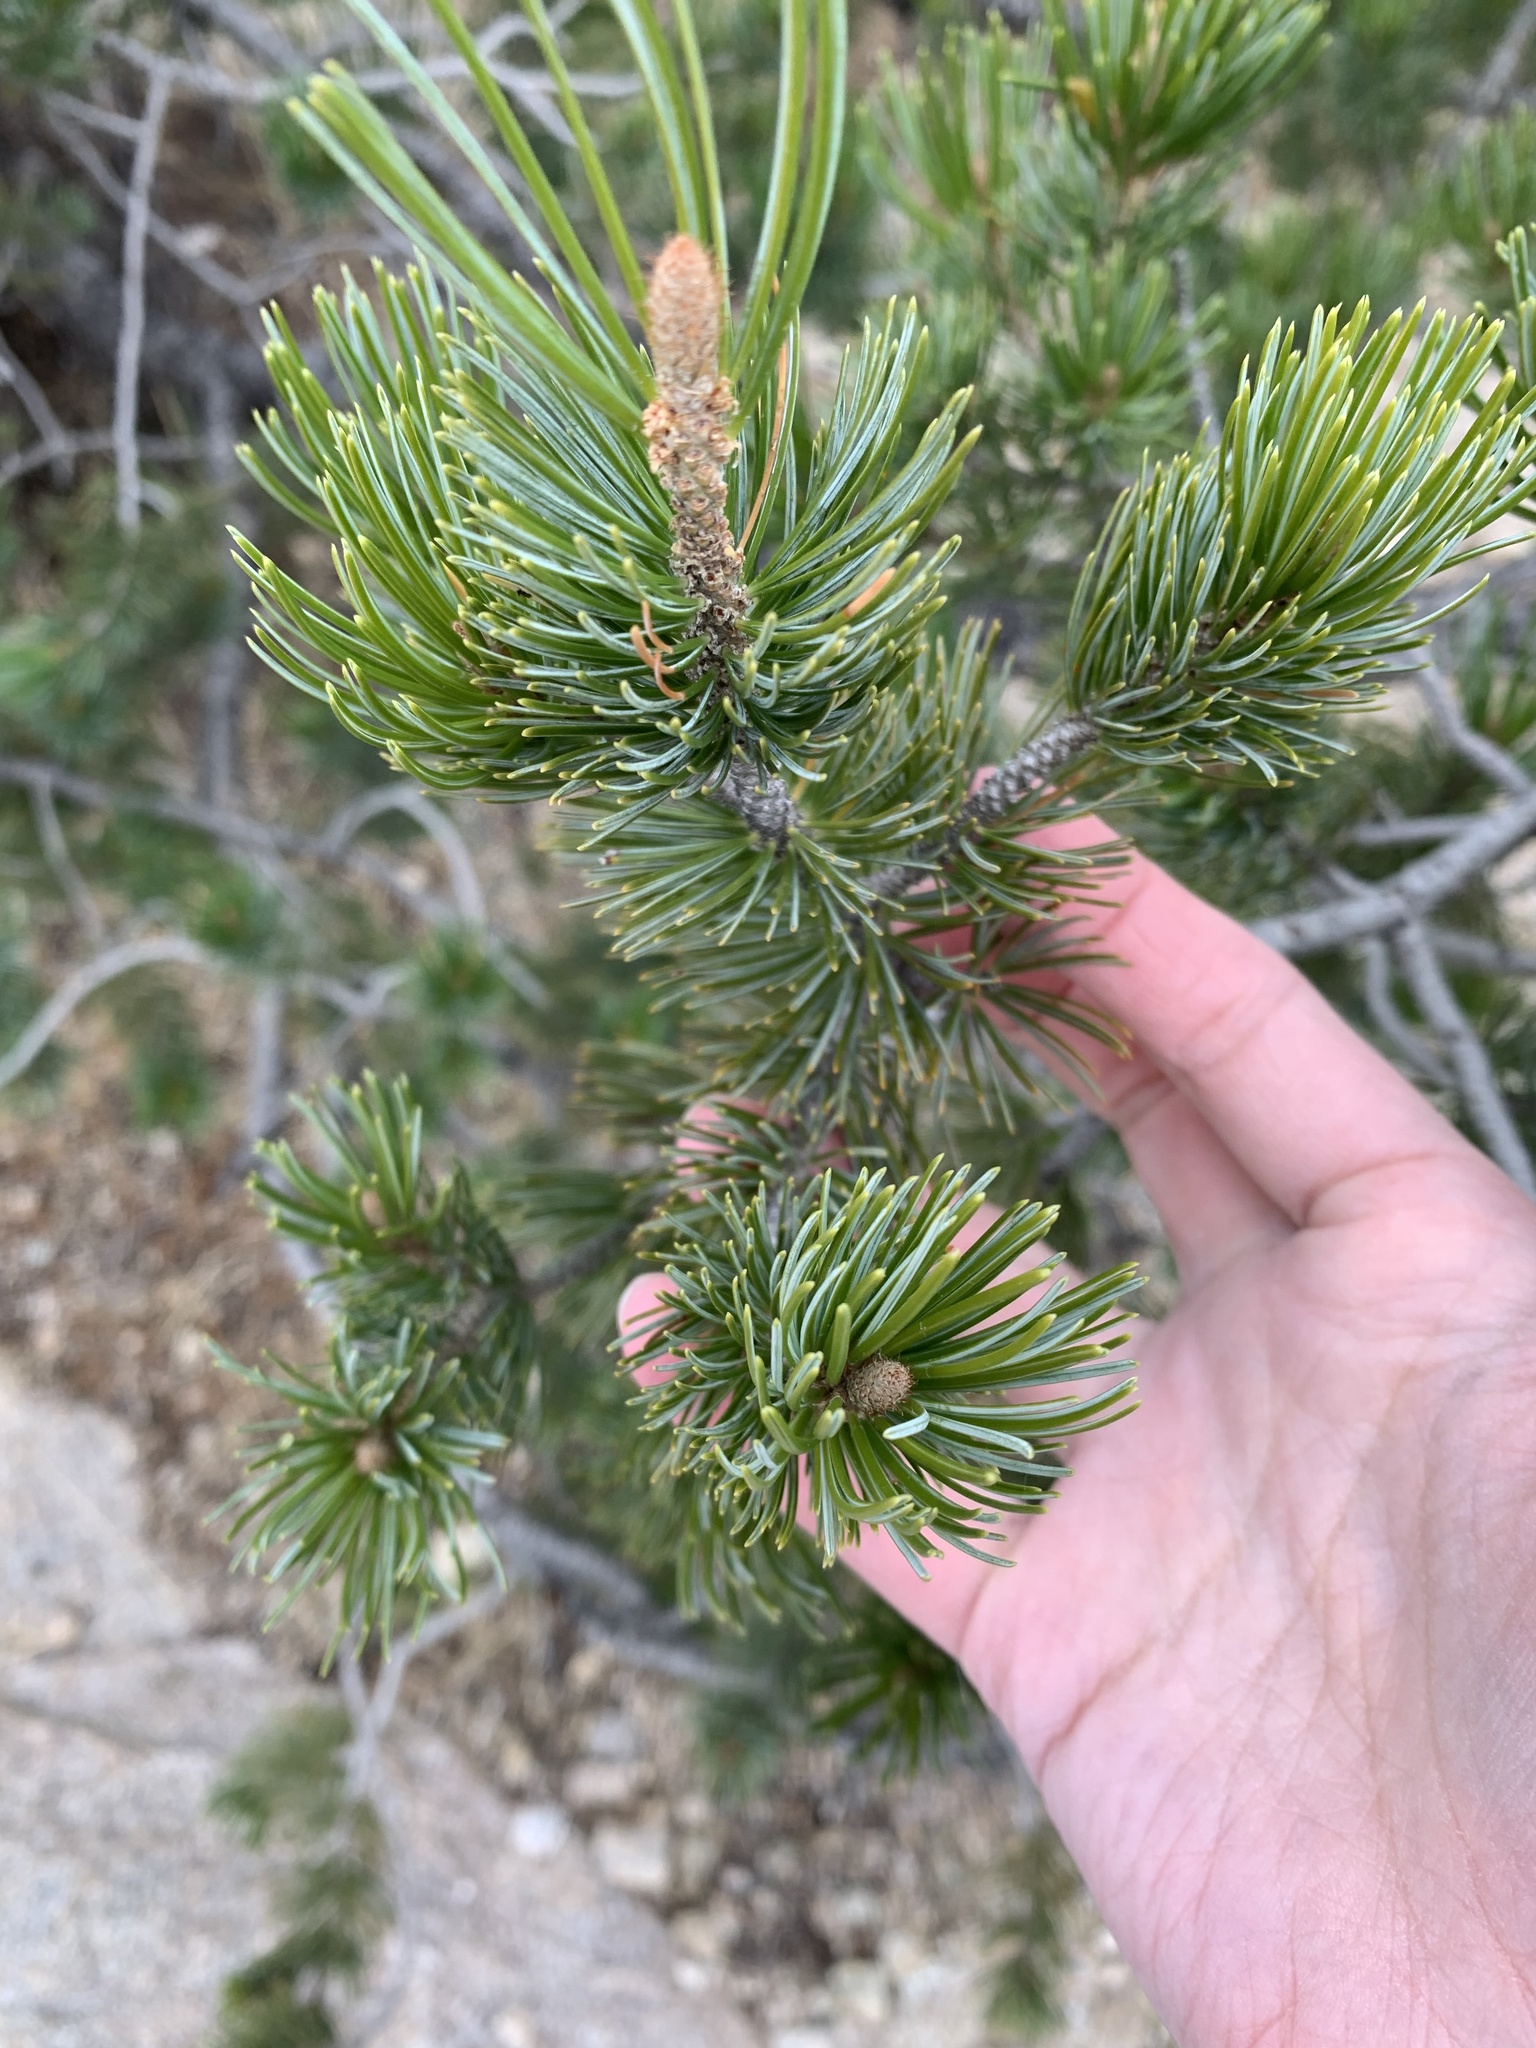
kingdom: Plantae
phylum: Tracheophyta
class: Pinopsida
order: Pinales
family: Pinaceae
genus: Pinus
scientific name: Pinus cembroides
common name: Mexican nut pine
